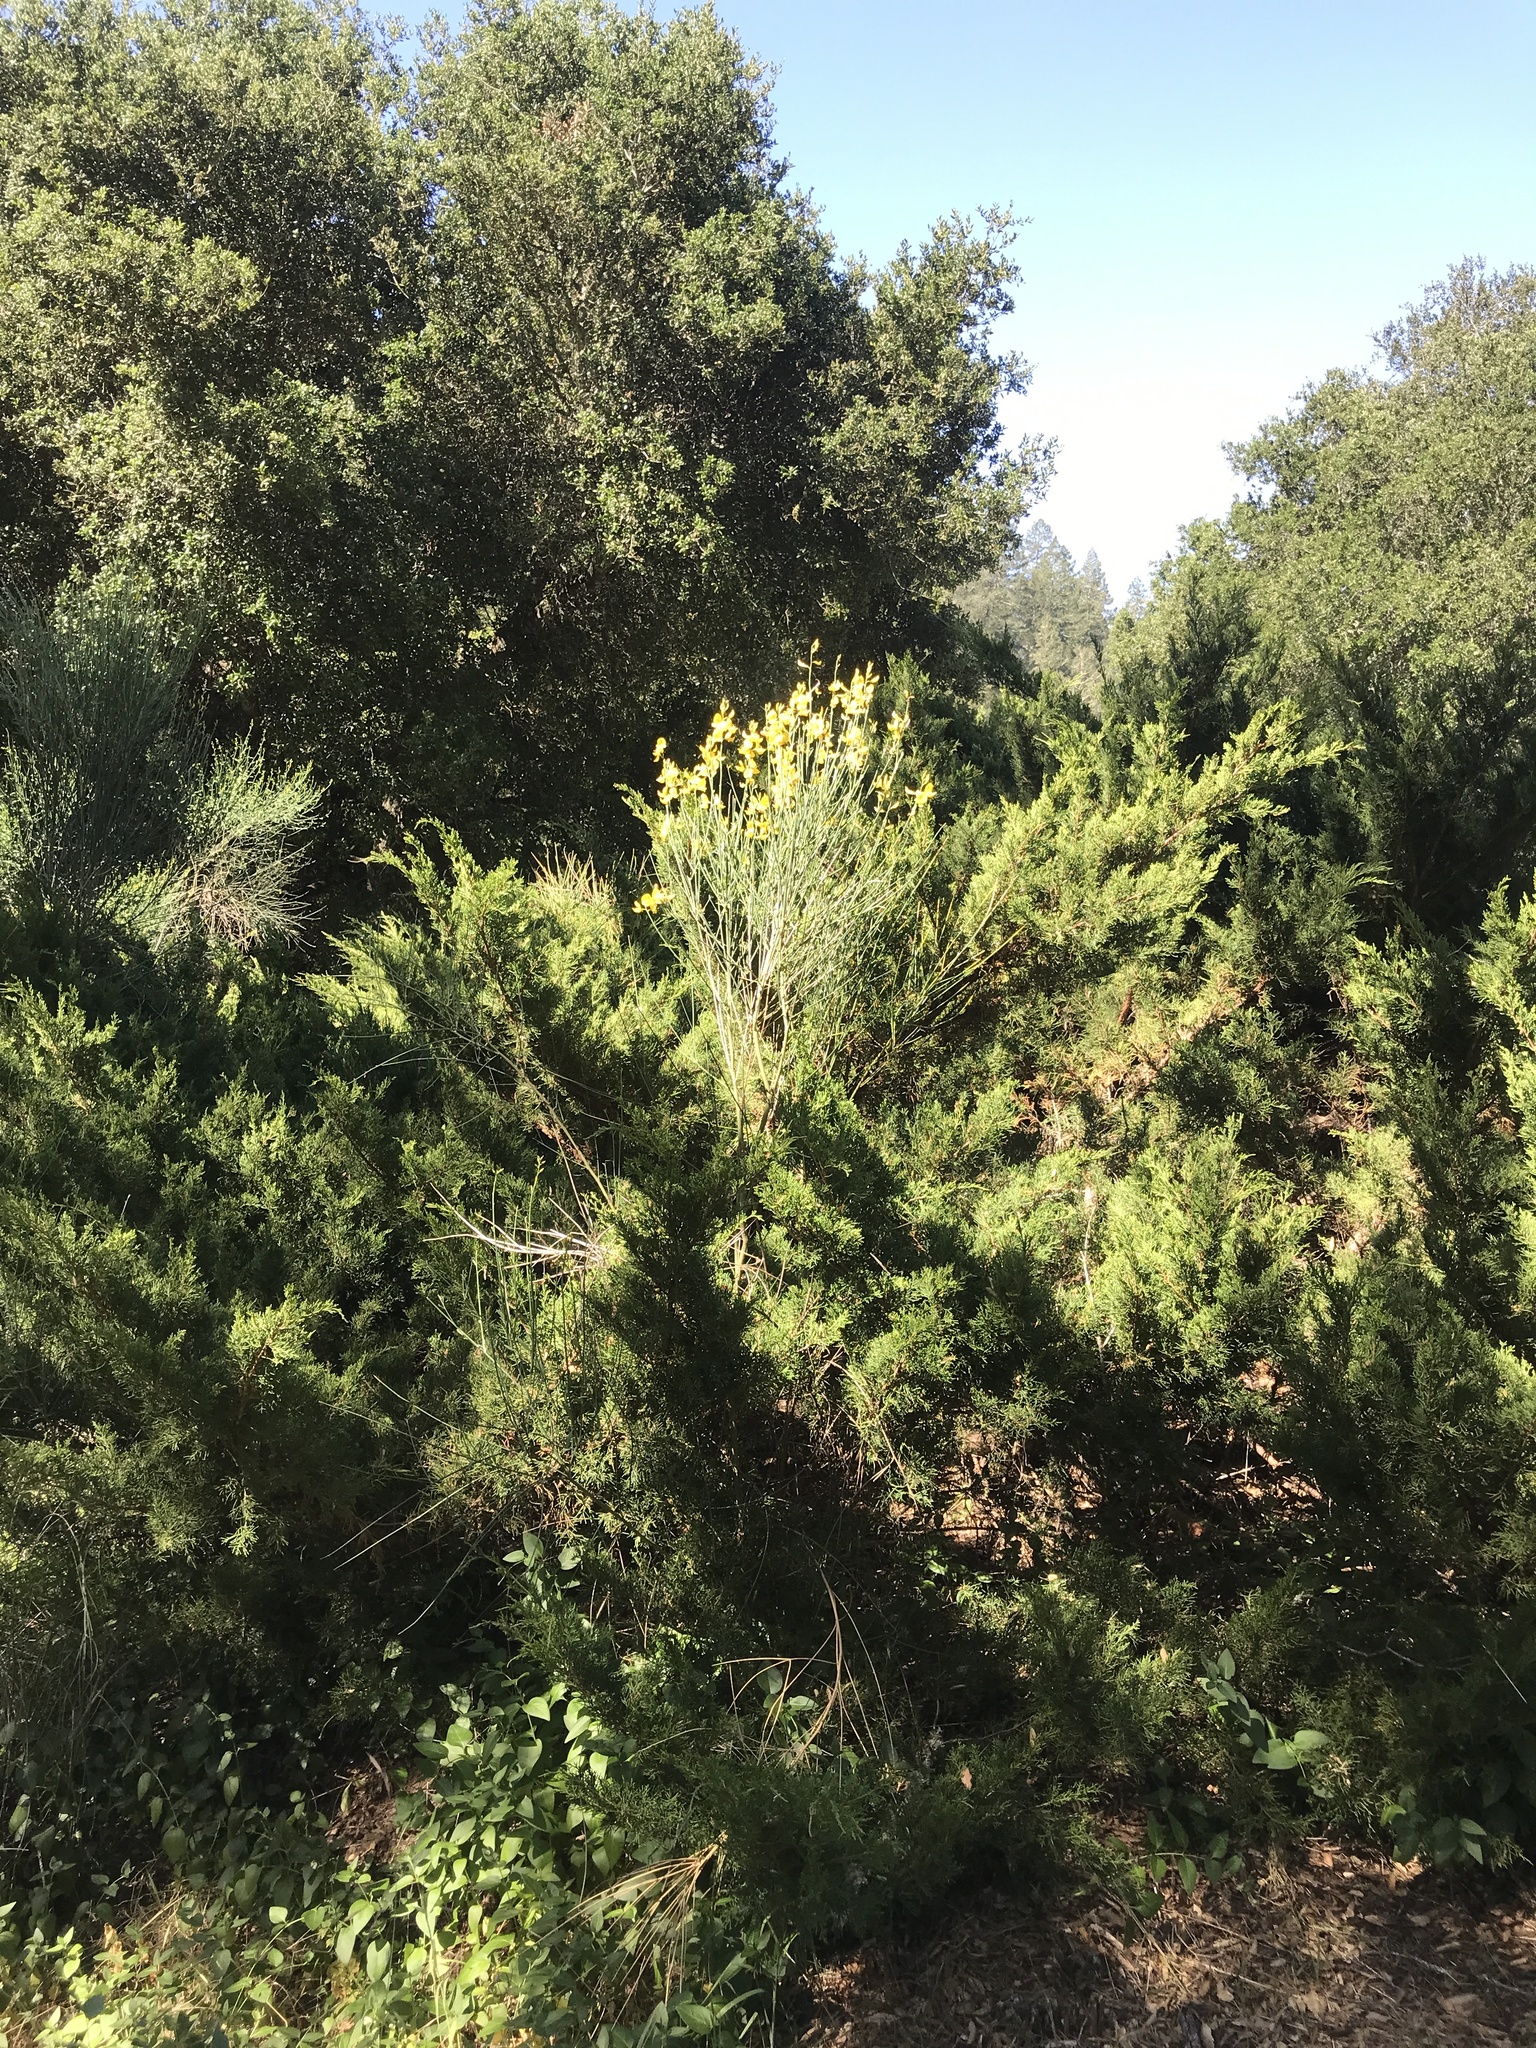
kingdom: Plantae
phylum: Tracheophyta
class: Magnoliopsida
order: Fabales
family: Fabaceae
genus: Spartium
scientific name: Spartium junceum
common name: Spanish broom
